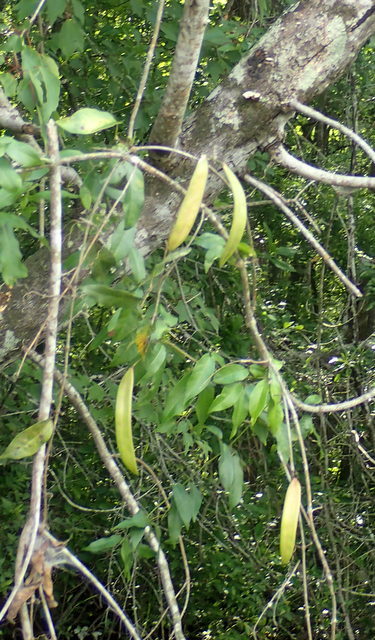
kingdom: Plantae
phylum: Tracheophyta
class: Magnoliopsida
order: Lamiales
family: Bignoniaceae
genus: Bignonia
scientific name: Bignonia capreolata
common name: Crossvine
